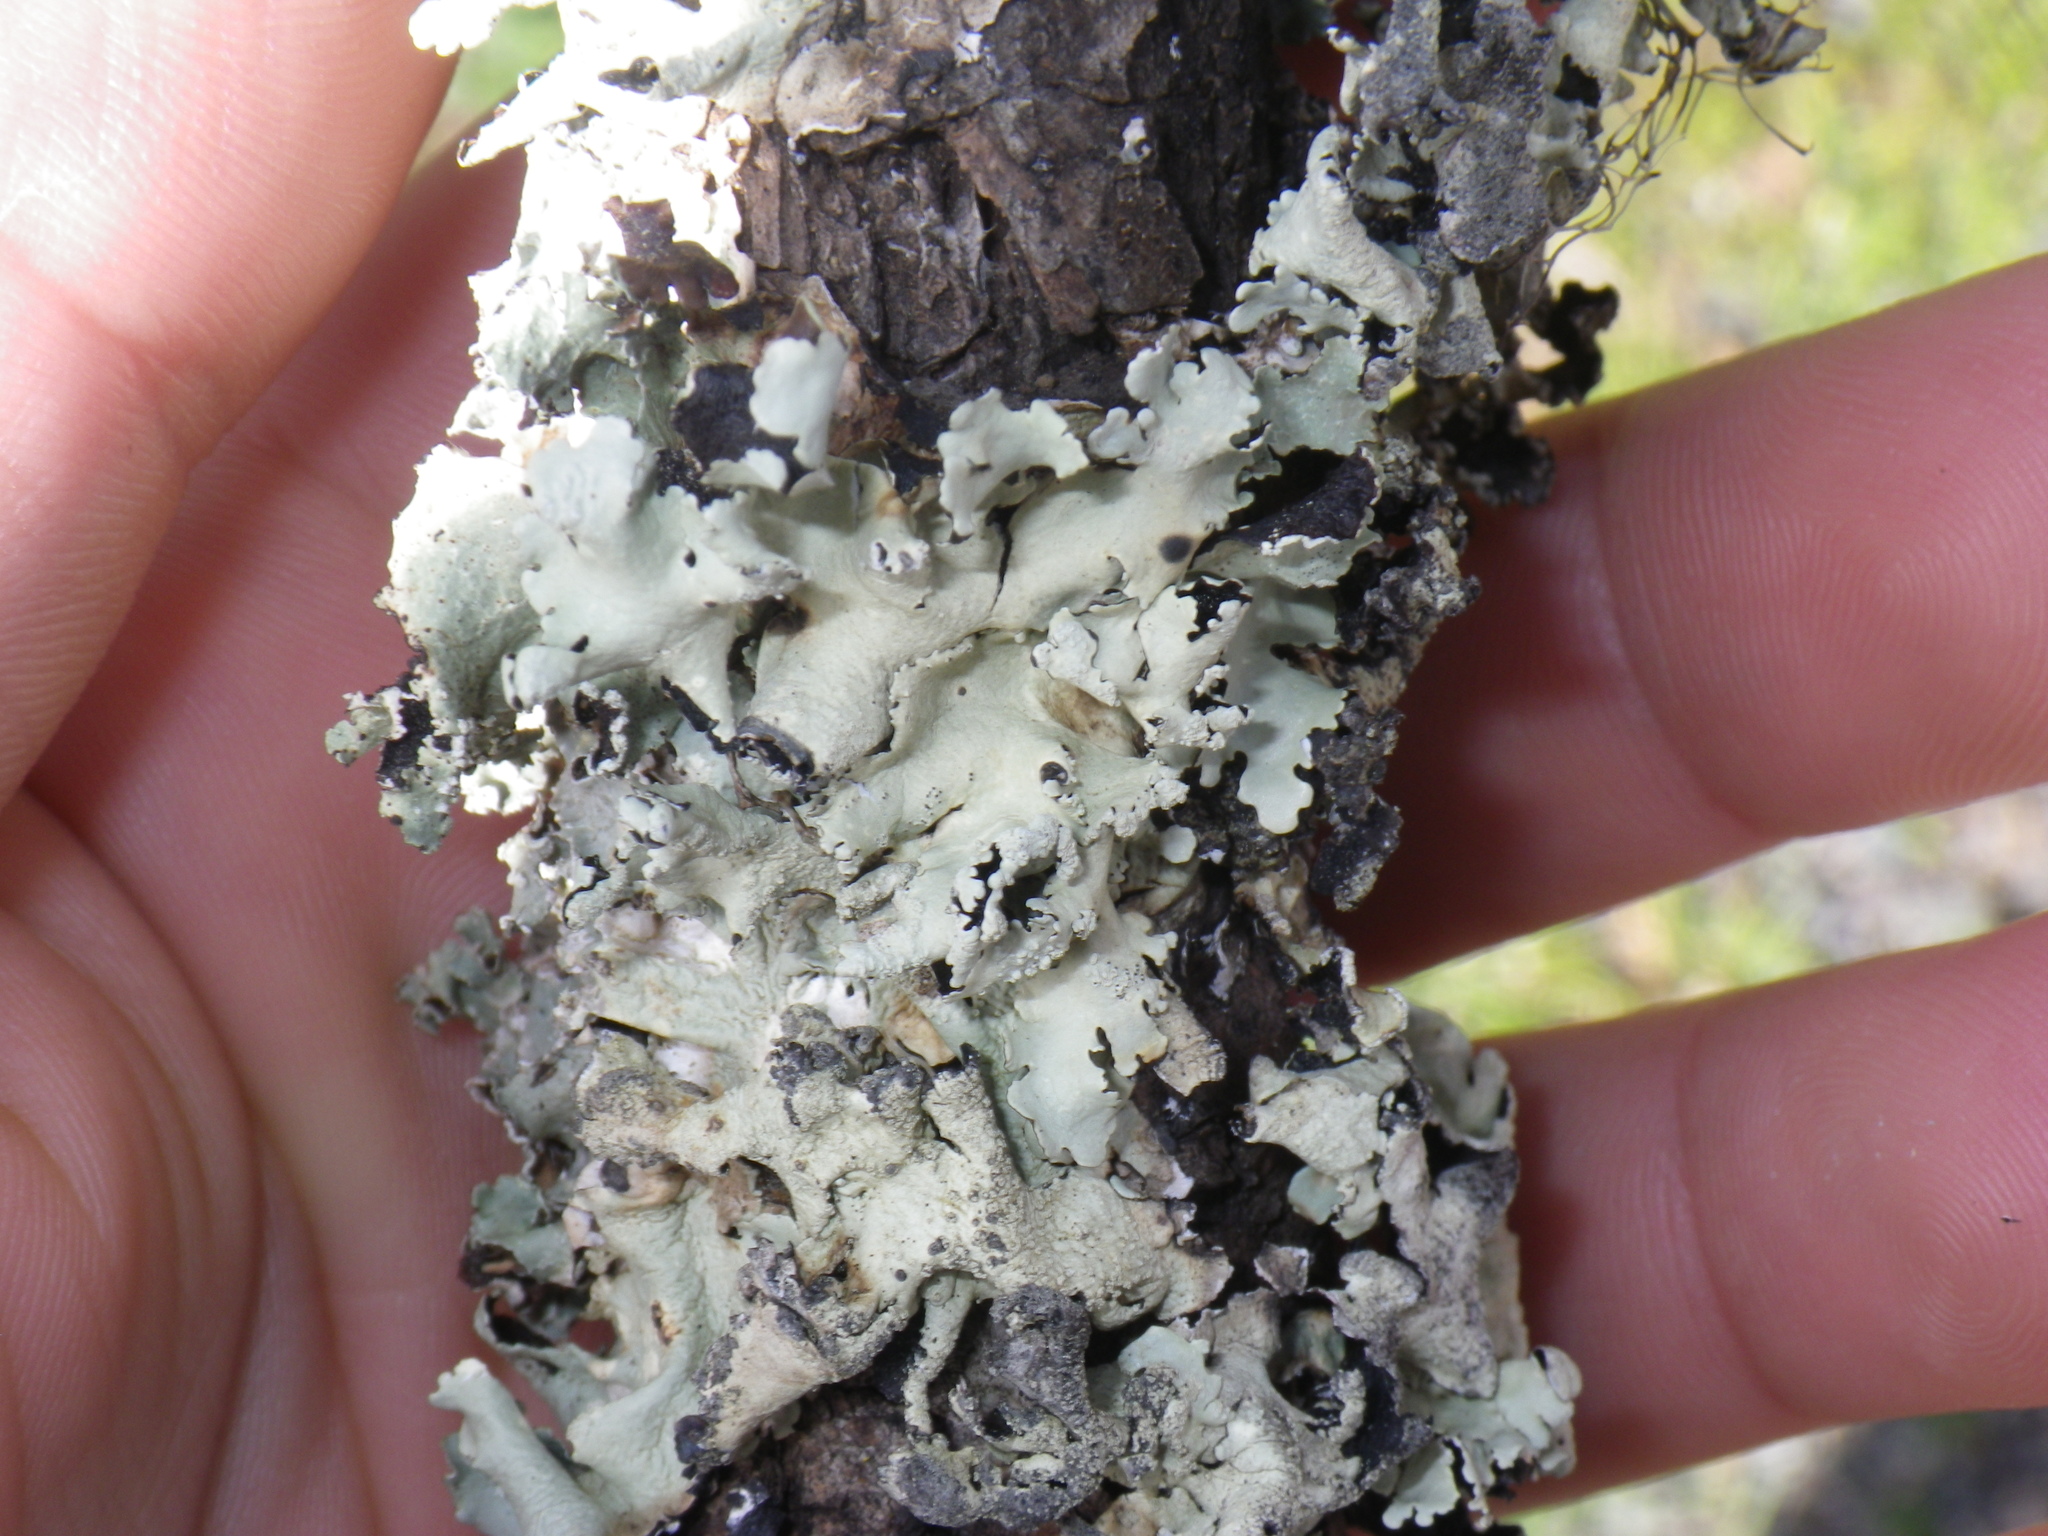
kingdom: Fungi
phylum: Ascomycota
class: Lecanoromycetes
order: Lecanorales
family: Parmeliaceae
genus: Parmelia
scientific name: Parmelia sulcata
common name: Netted shield lichen
